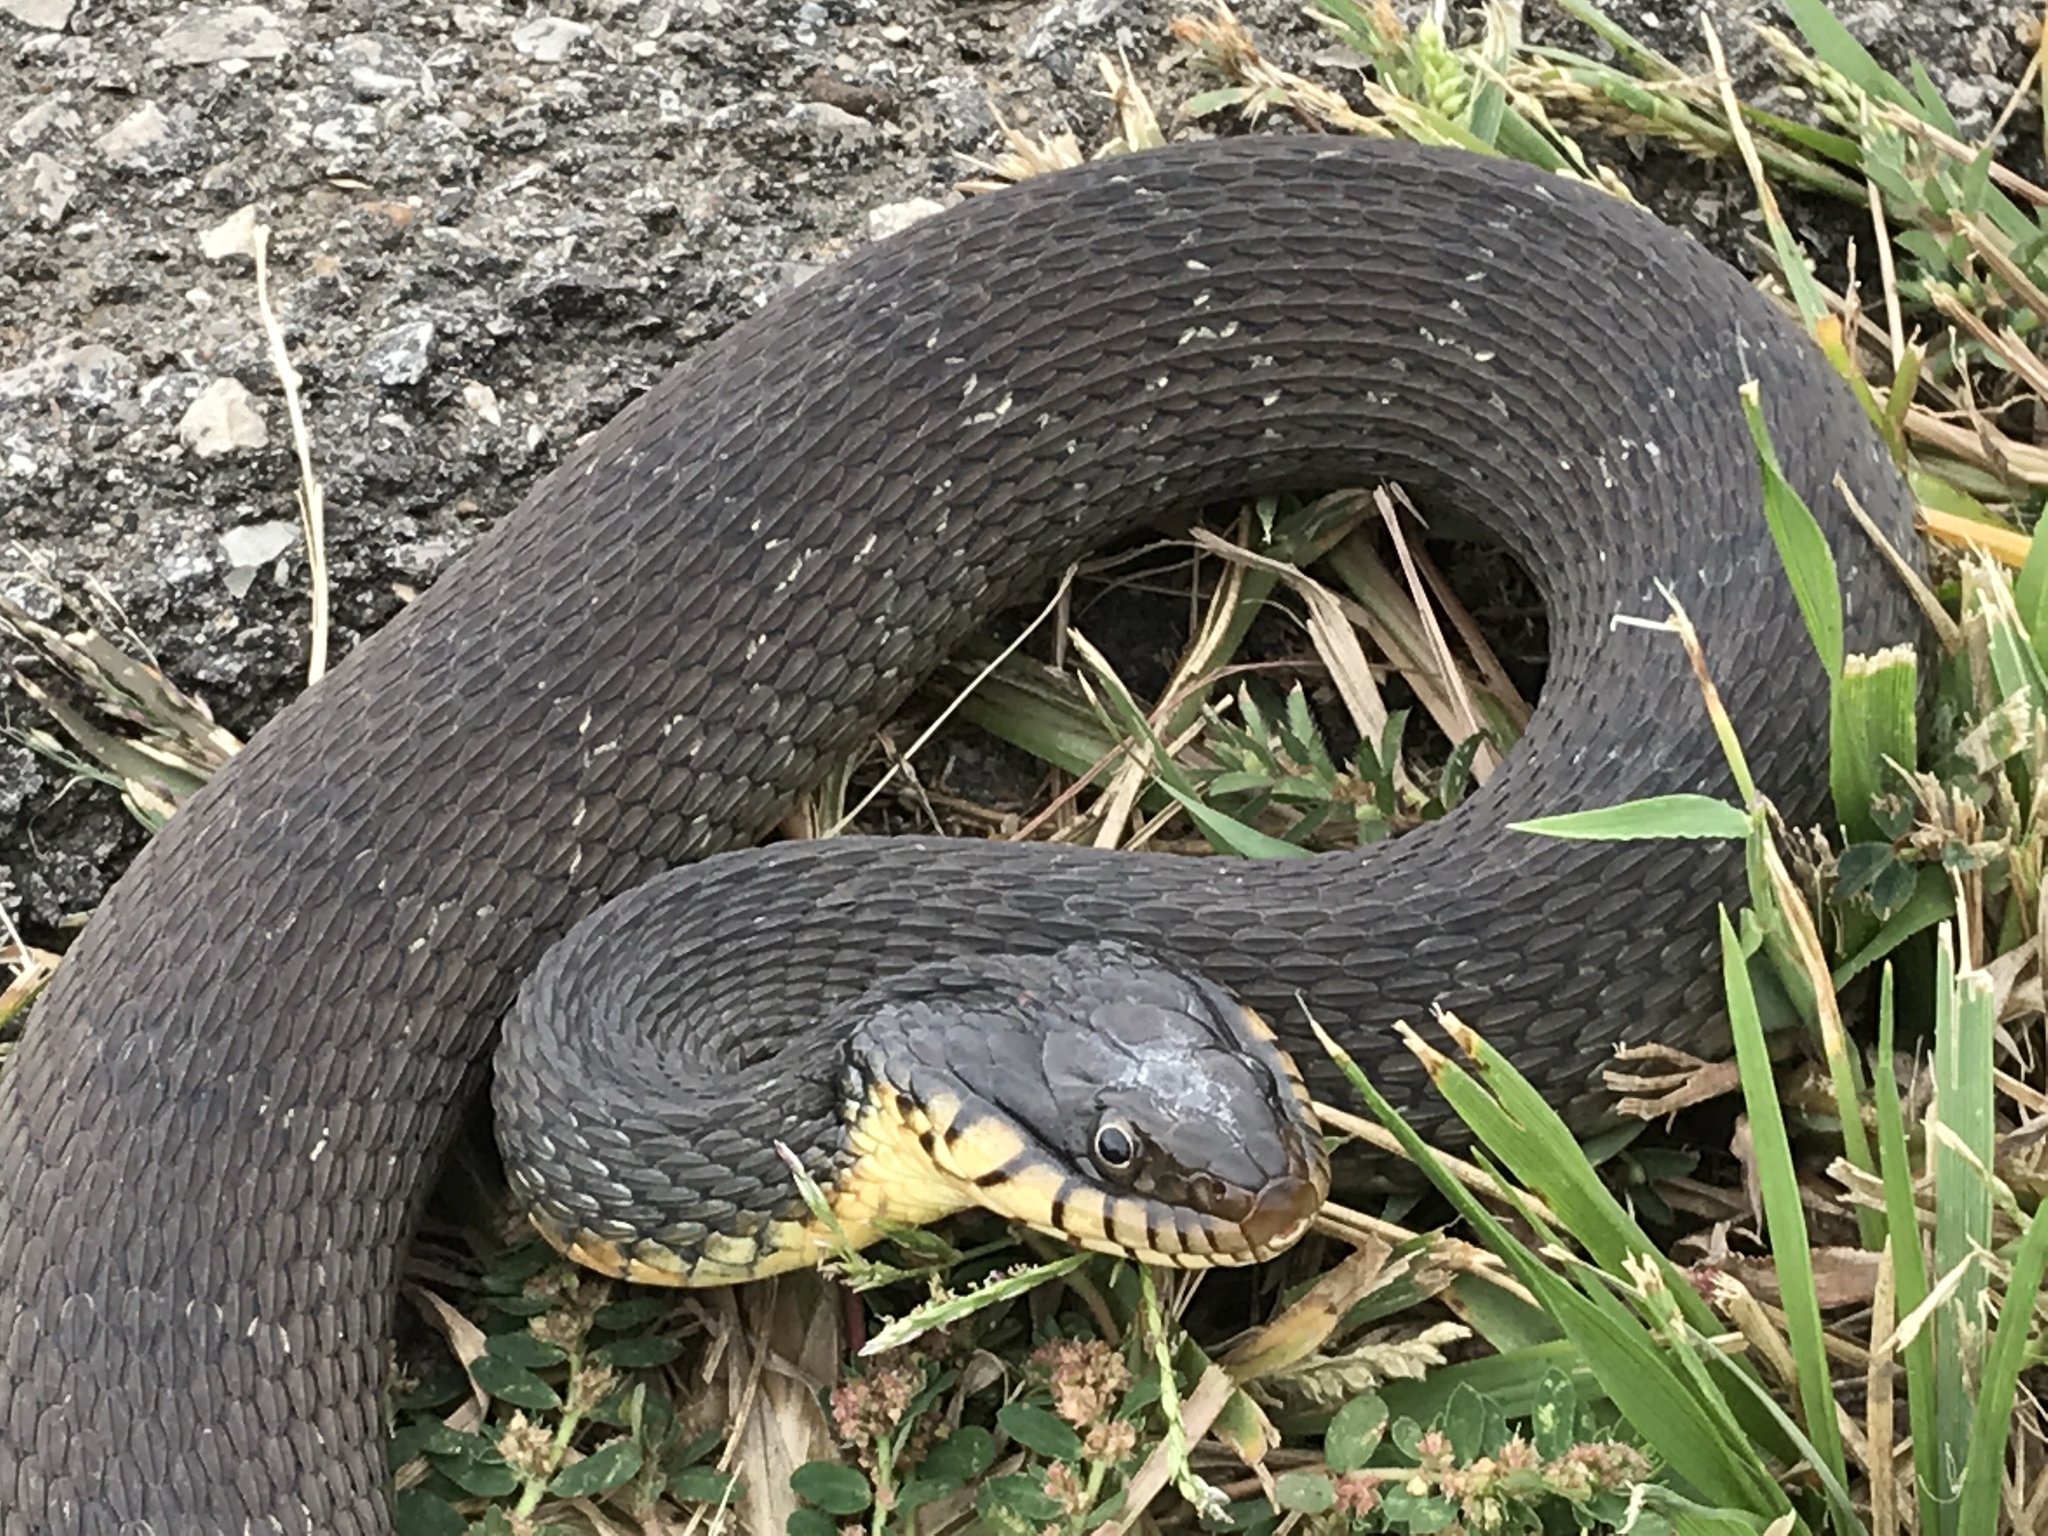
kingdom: Animalia
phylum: Chordata
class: Squamata
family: Colubridae
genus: Nerodia
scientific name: Nerodia erythrogaster
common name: Plainbelly water snake
